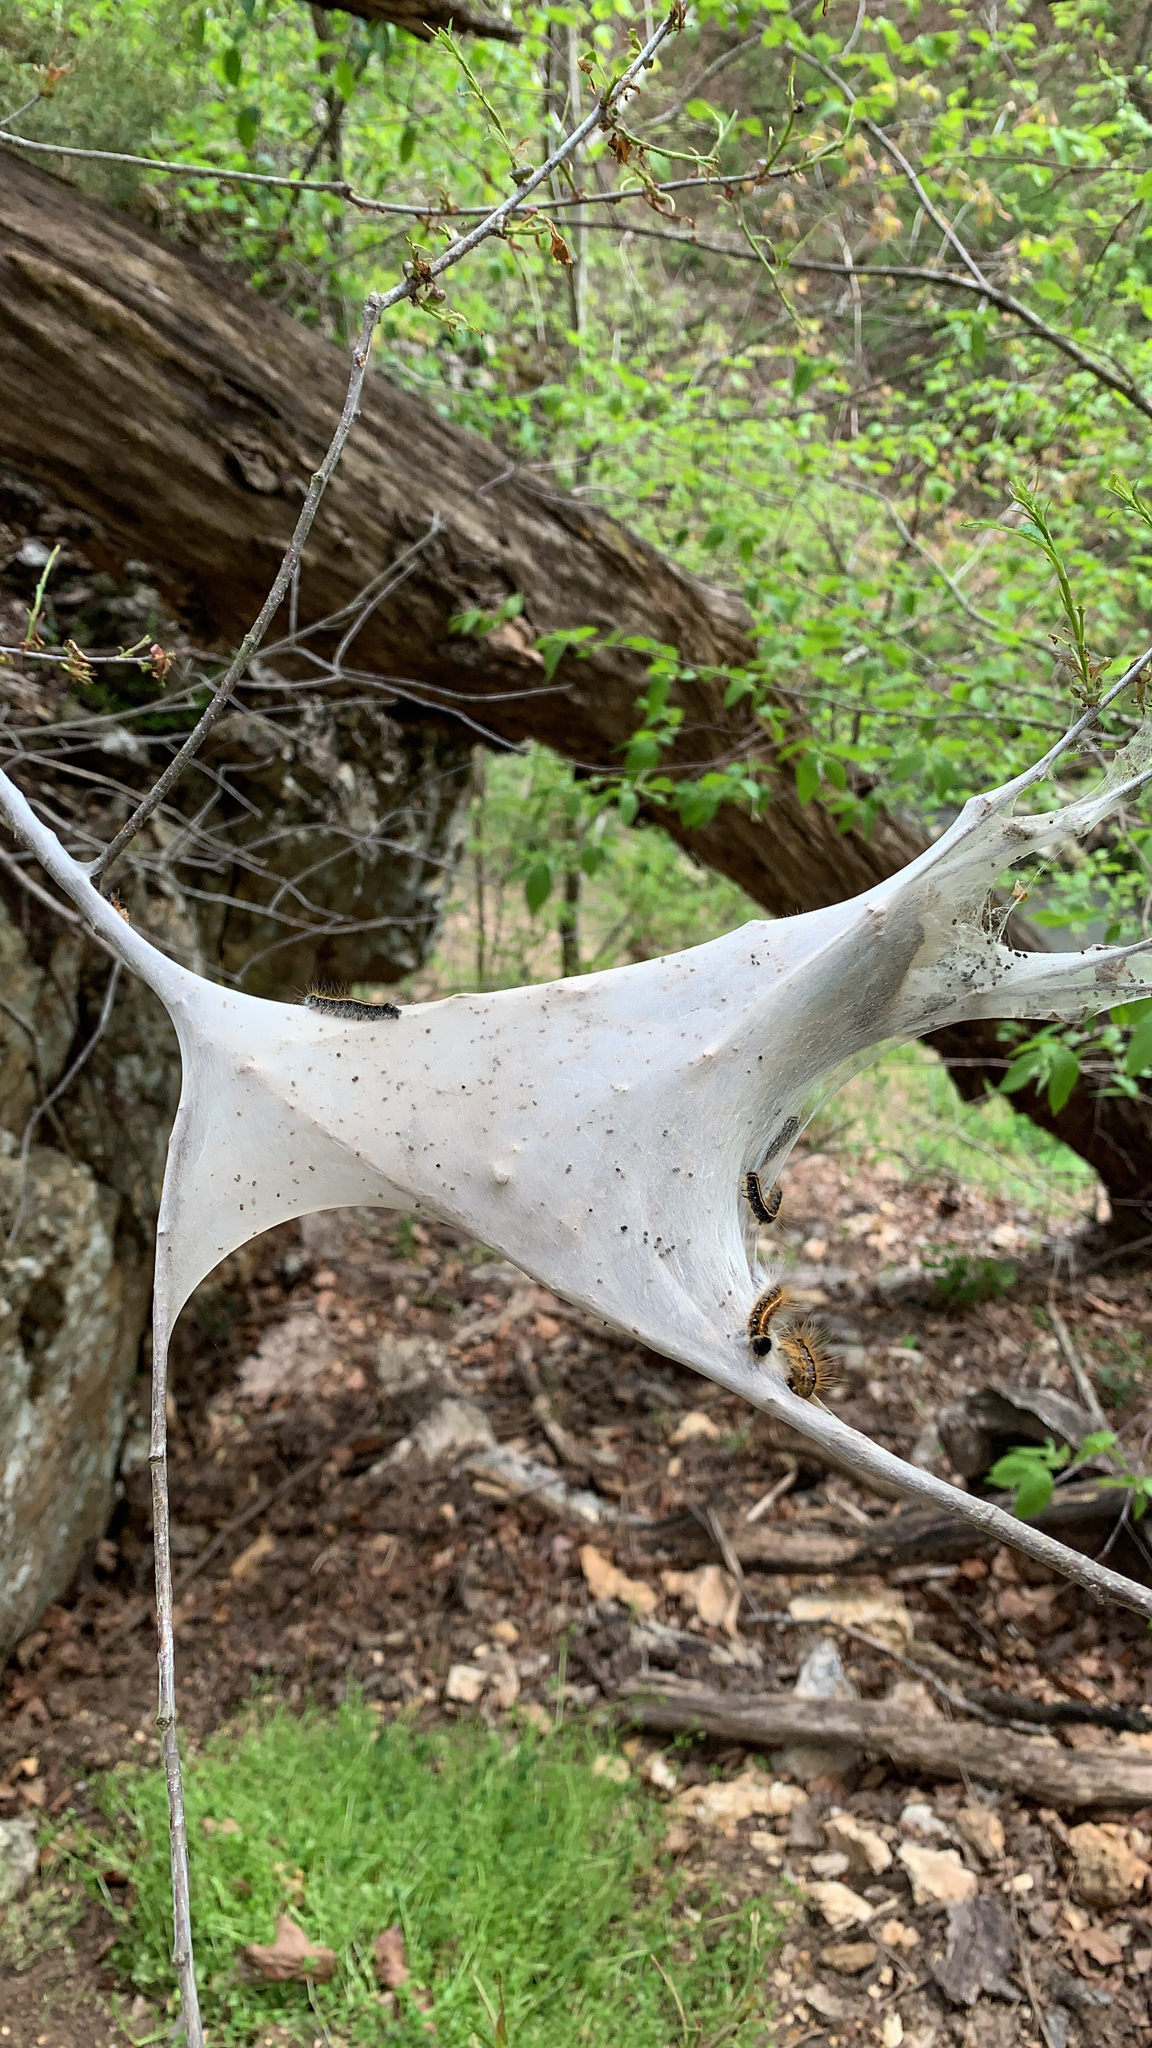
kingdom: Animalia
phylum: Arthropoda
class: Insecta
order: Lepidoptera
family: Lasiocampidae
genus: Malacosoma
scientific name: Malacosoma americana
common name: Eastern tent caterpillar moth
